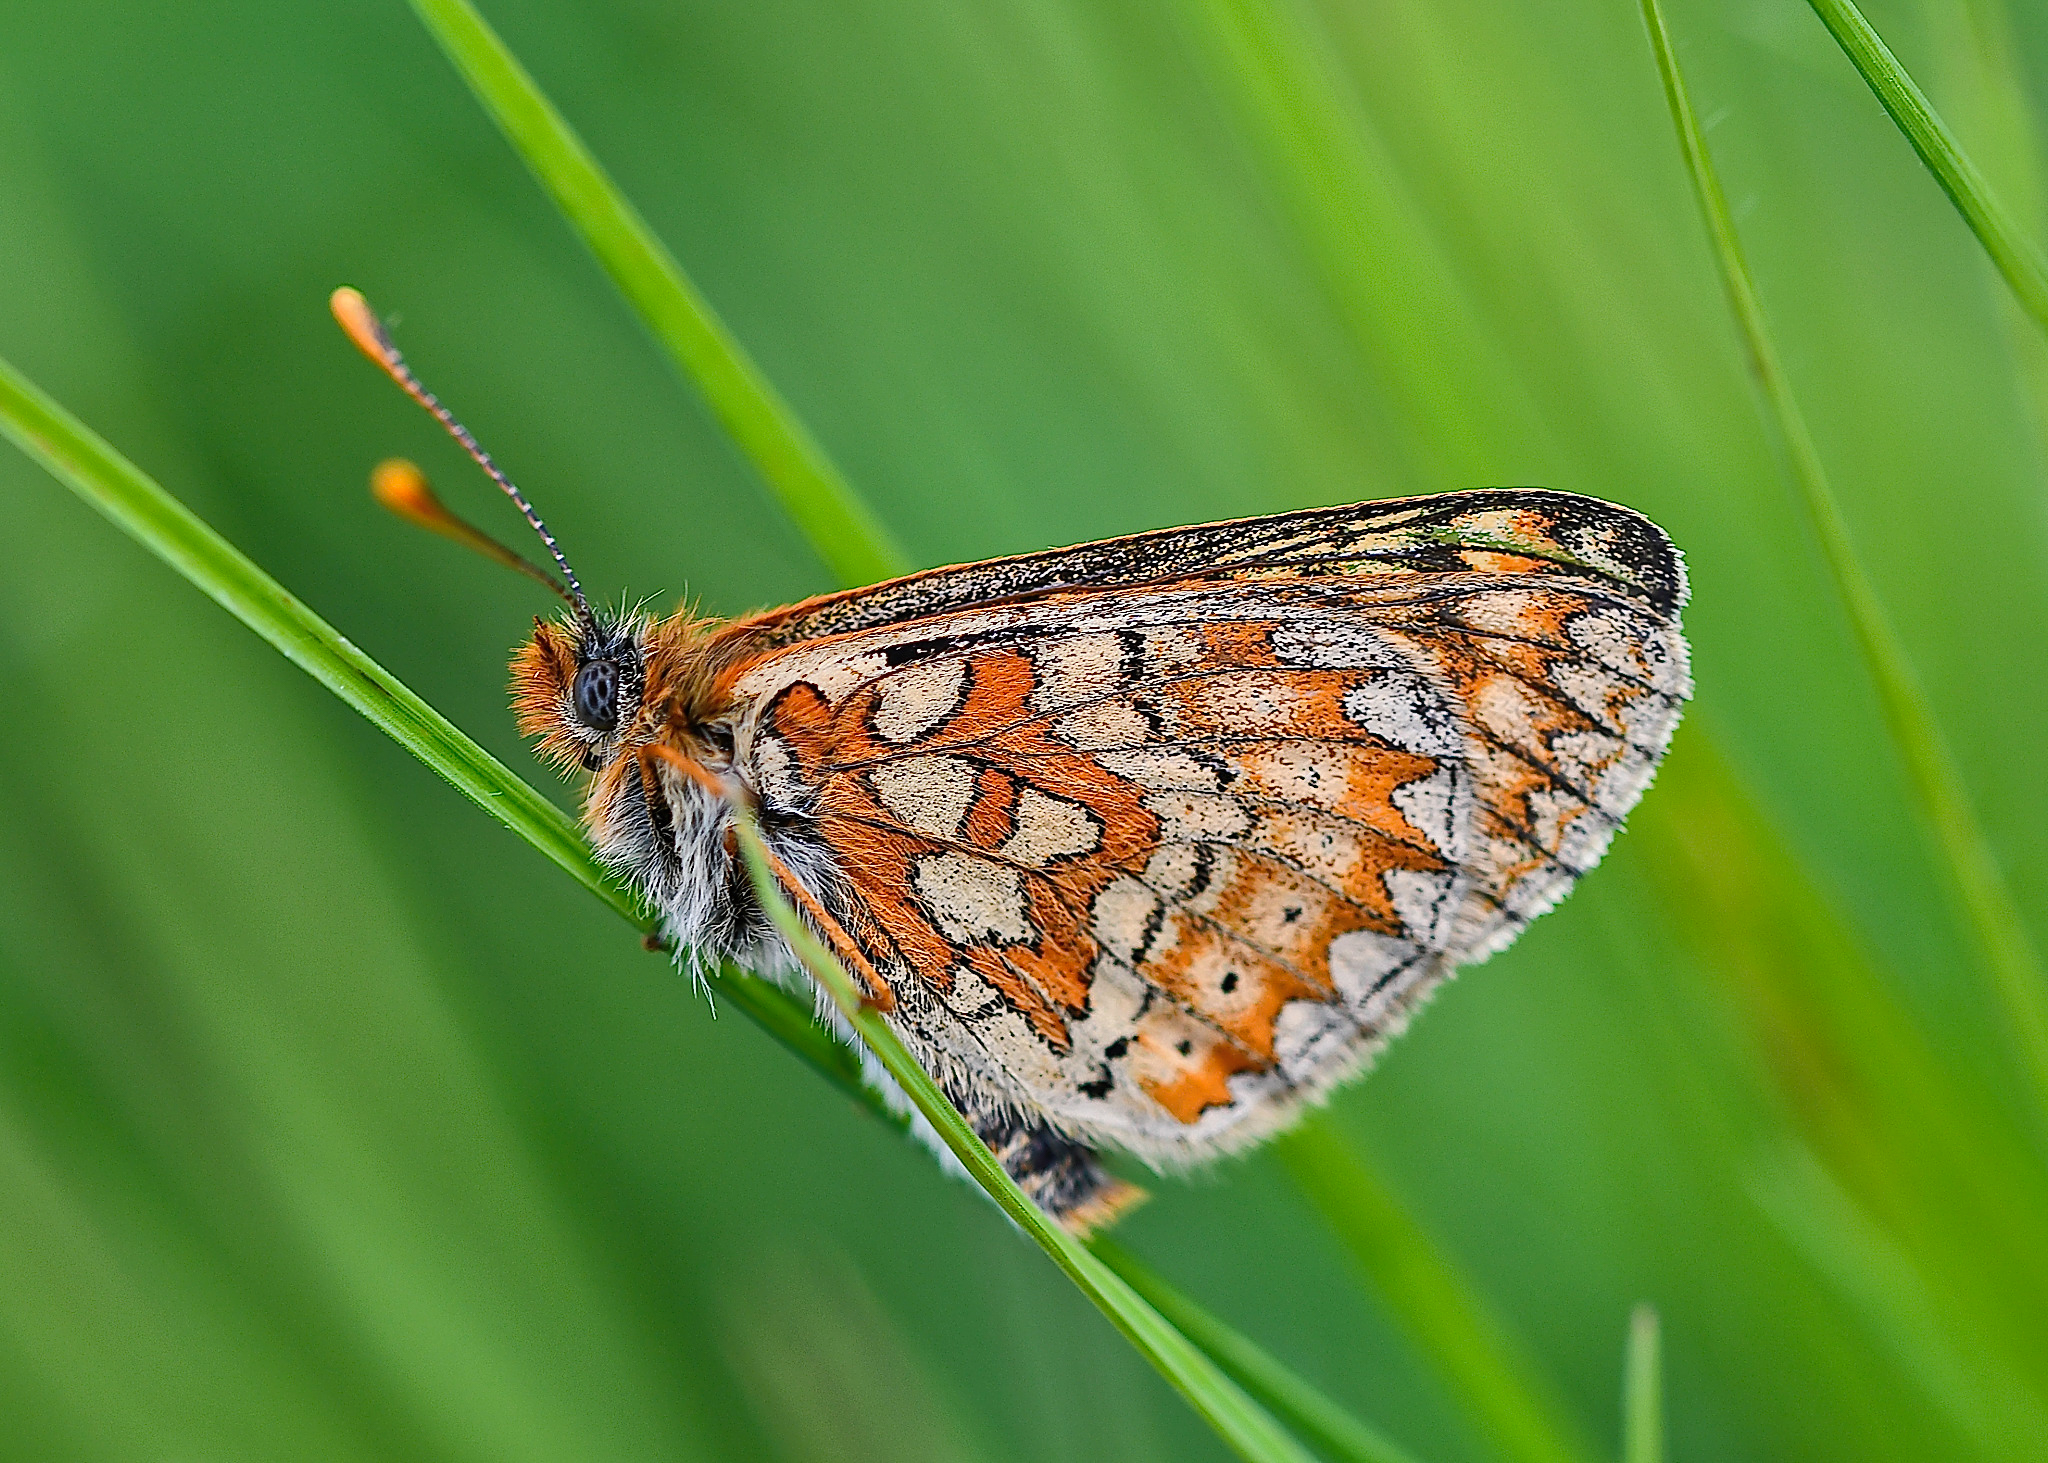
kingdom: Animalia
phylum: Arthropoda
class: Insecta
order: Lepidoptera
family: Nymphalidae
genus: Euphydryas
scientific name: Euphydryas aurinia
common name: Marsh fritillary
